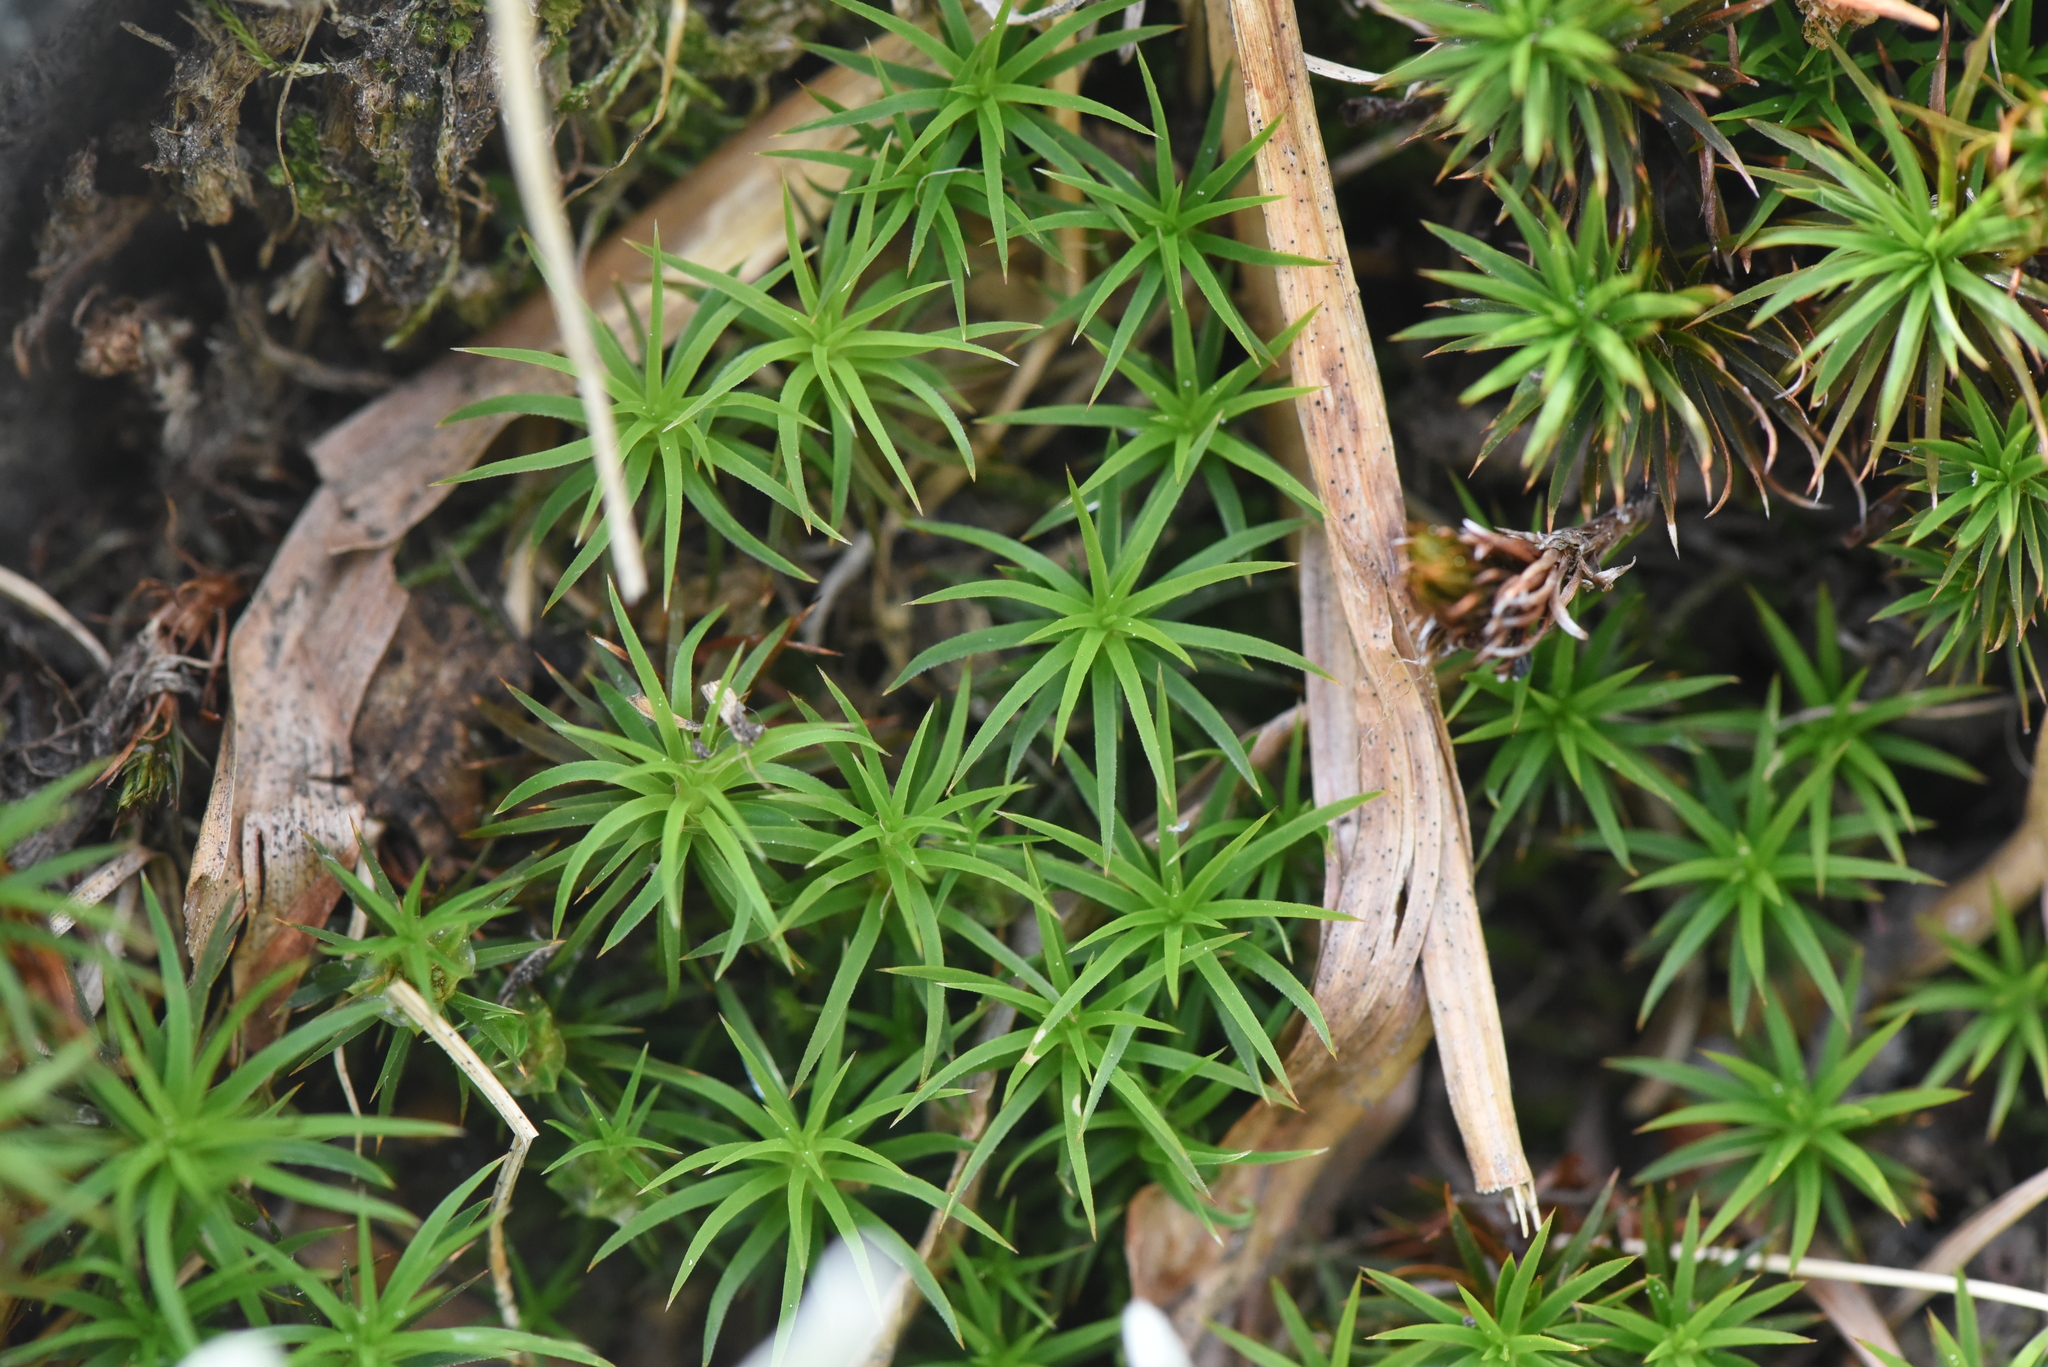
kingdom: Plantae
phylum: Bryophyta
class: Polytrichopsida
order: Polytrichales
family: Polytrichaceae
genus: Polytrichastrum
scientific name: Polytrichastrum alpinum
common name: Alpine haircap
